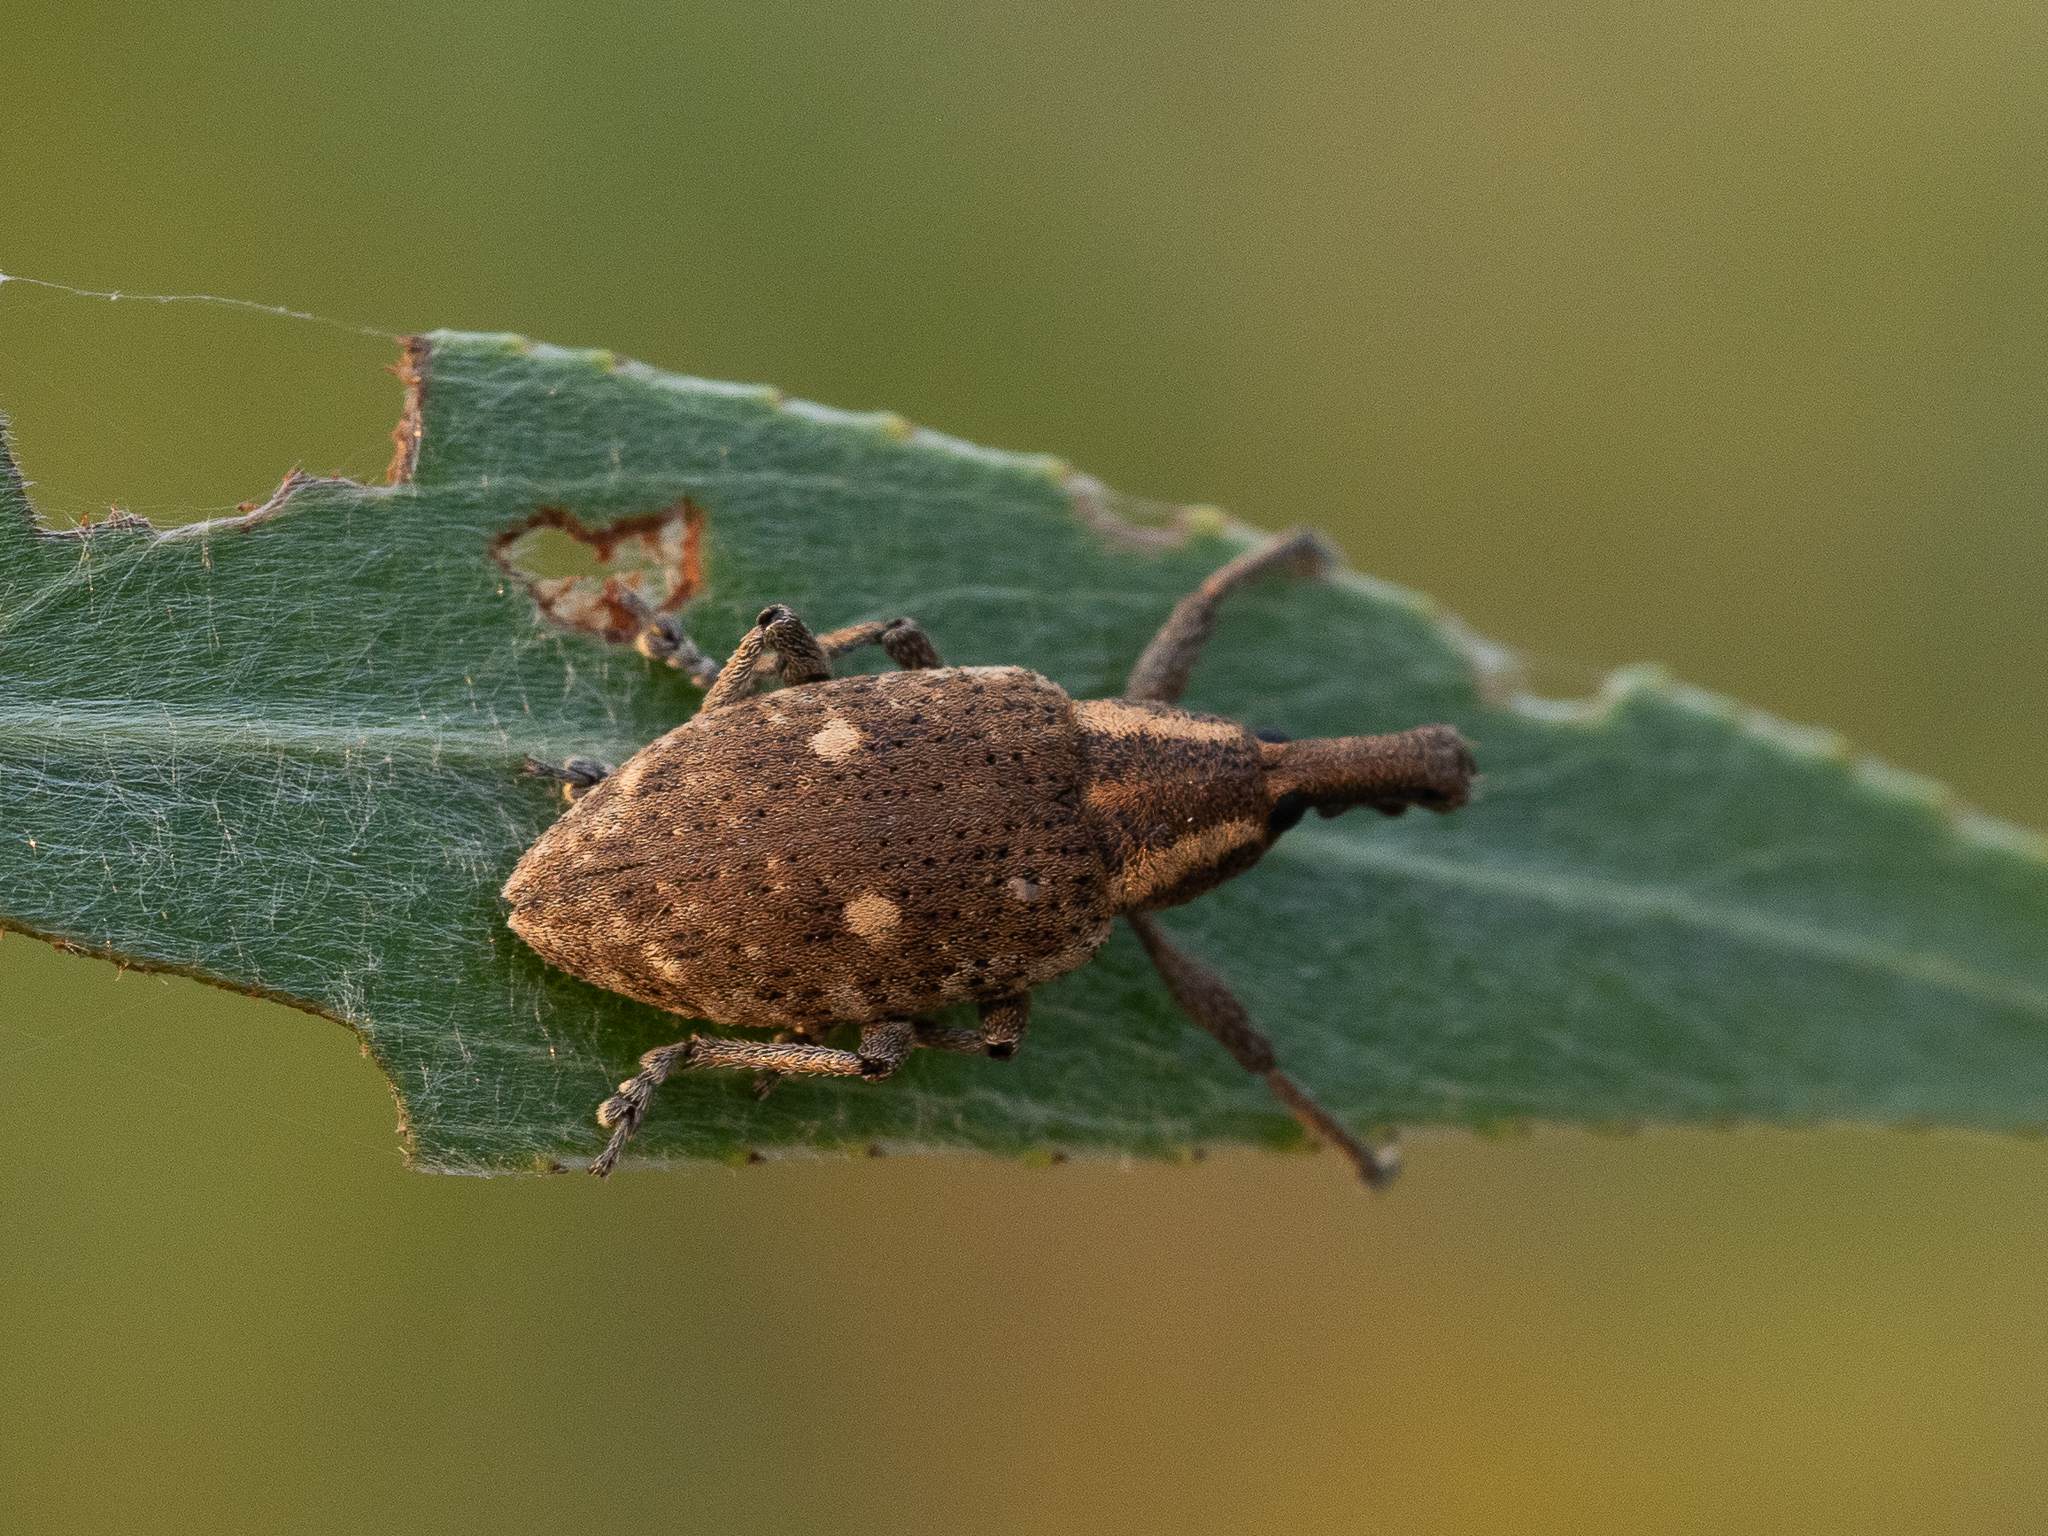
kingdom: Animalia
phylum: Arthropoda
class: Insecta
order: Coleoptera
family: Curculionidae
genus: Lepyrus
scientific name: Lepyrus palustris
